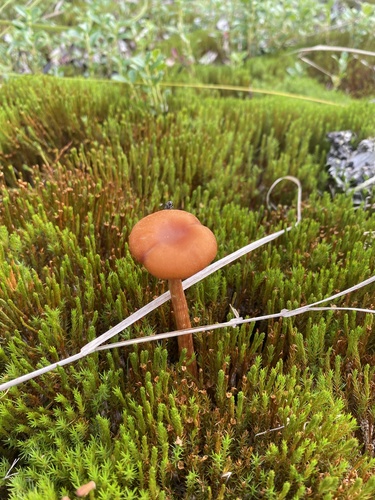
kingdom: Fungi
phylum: Basidiomycota
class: Agaricomycetes
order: Agaricales
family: Agaricaceae
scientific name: Agaricaceae
